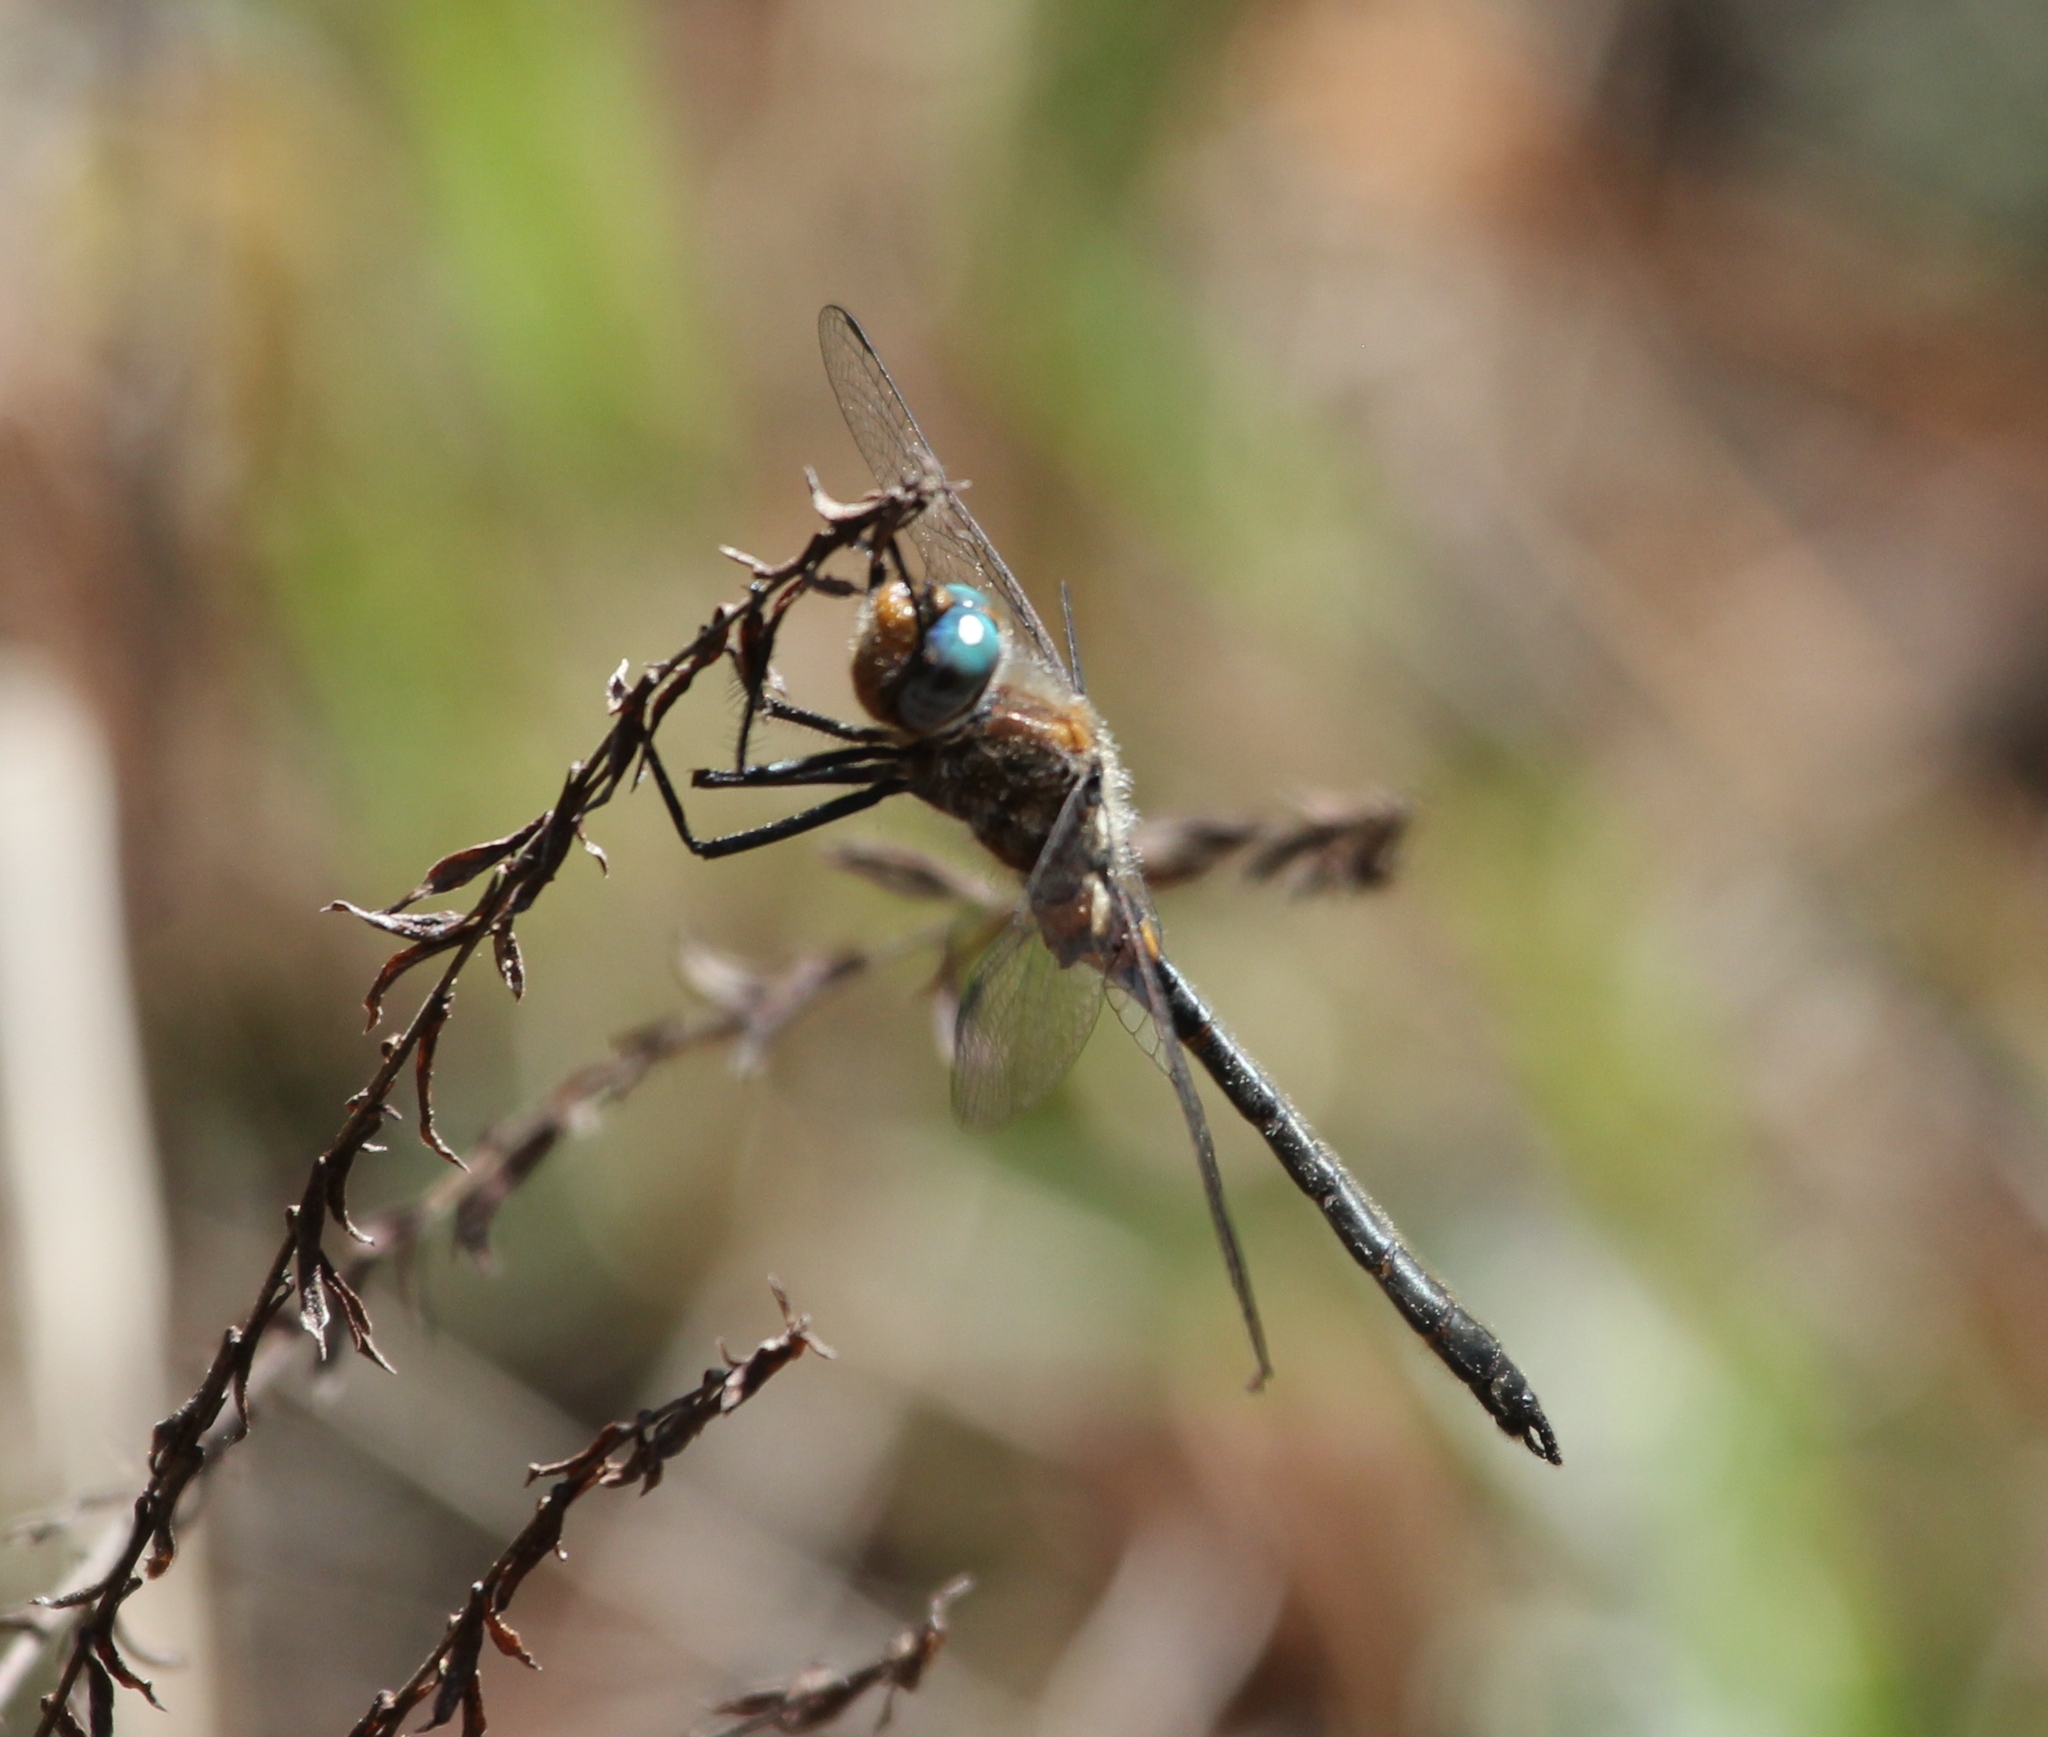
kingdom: Animalia
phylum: Arthropoda
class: Insecta
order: Odonata
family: Corduliidae
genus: Helocordulia
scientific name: Helocordulia selysii
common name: Selys's sundragon
